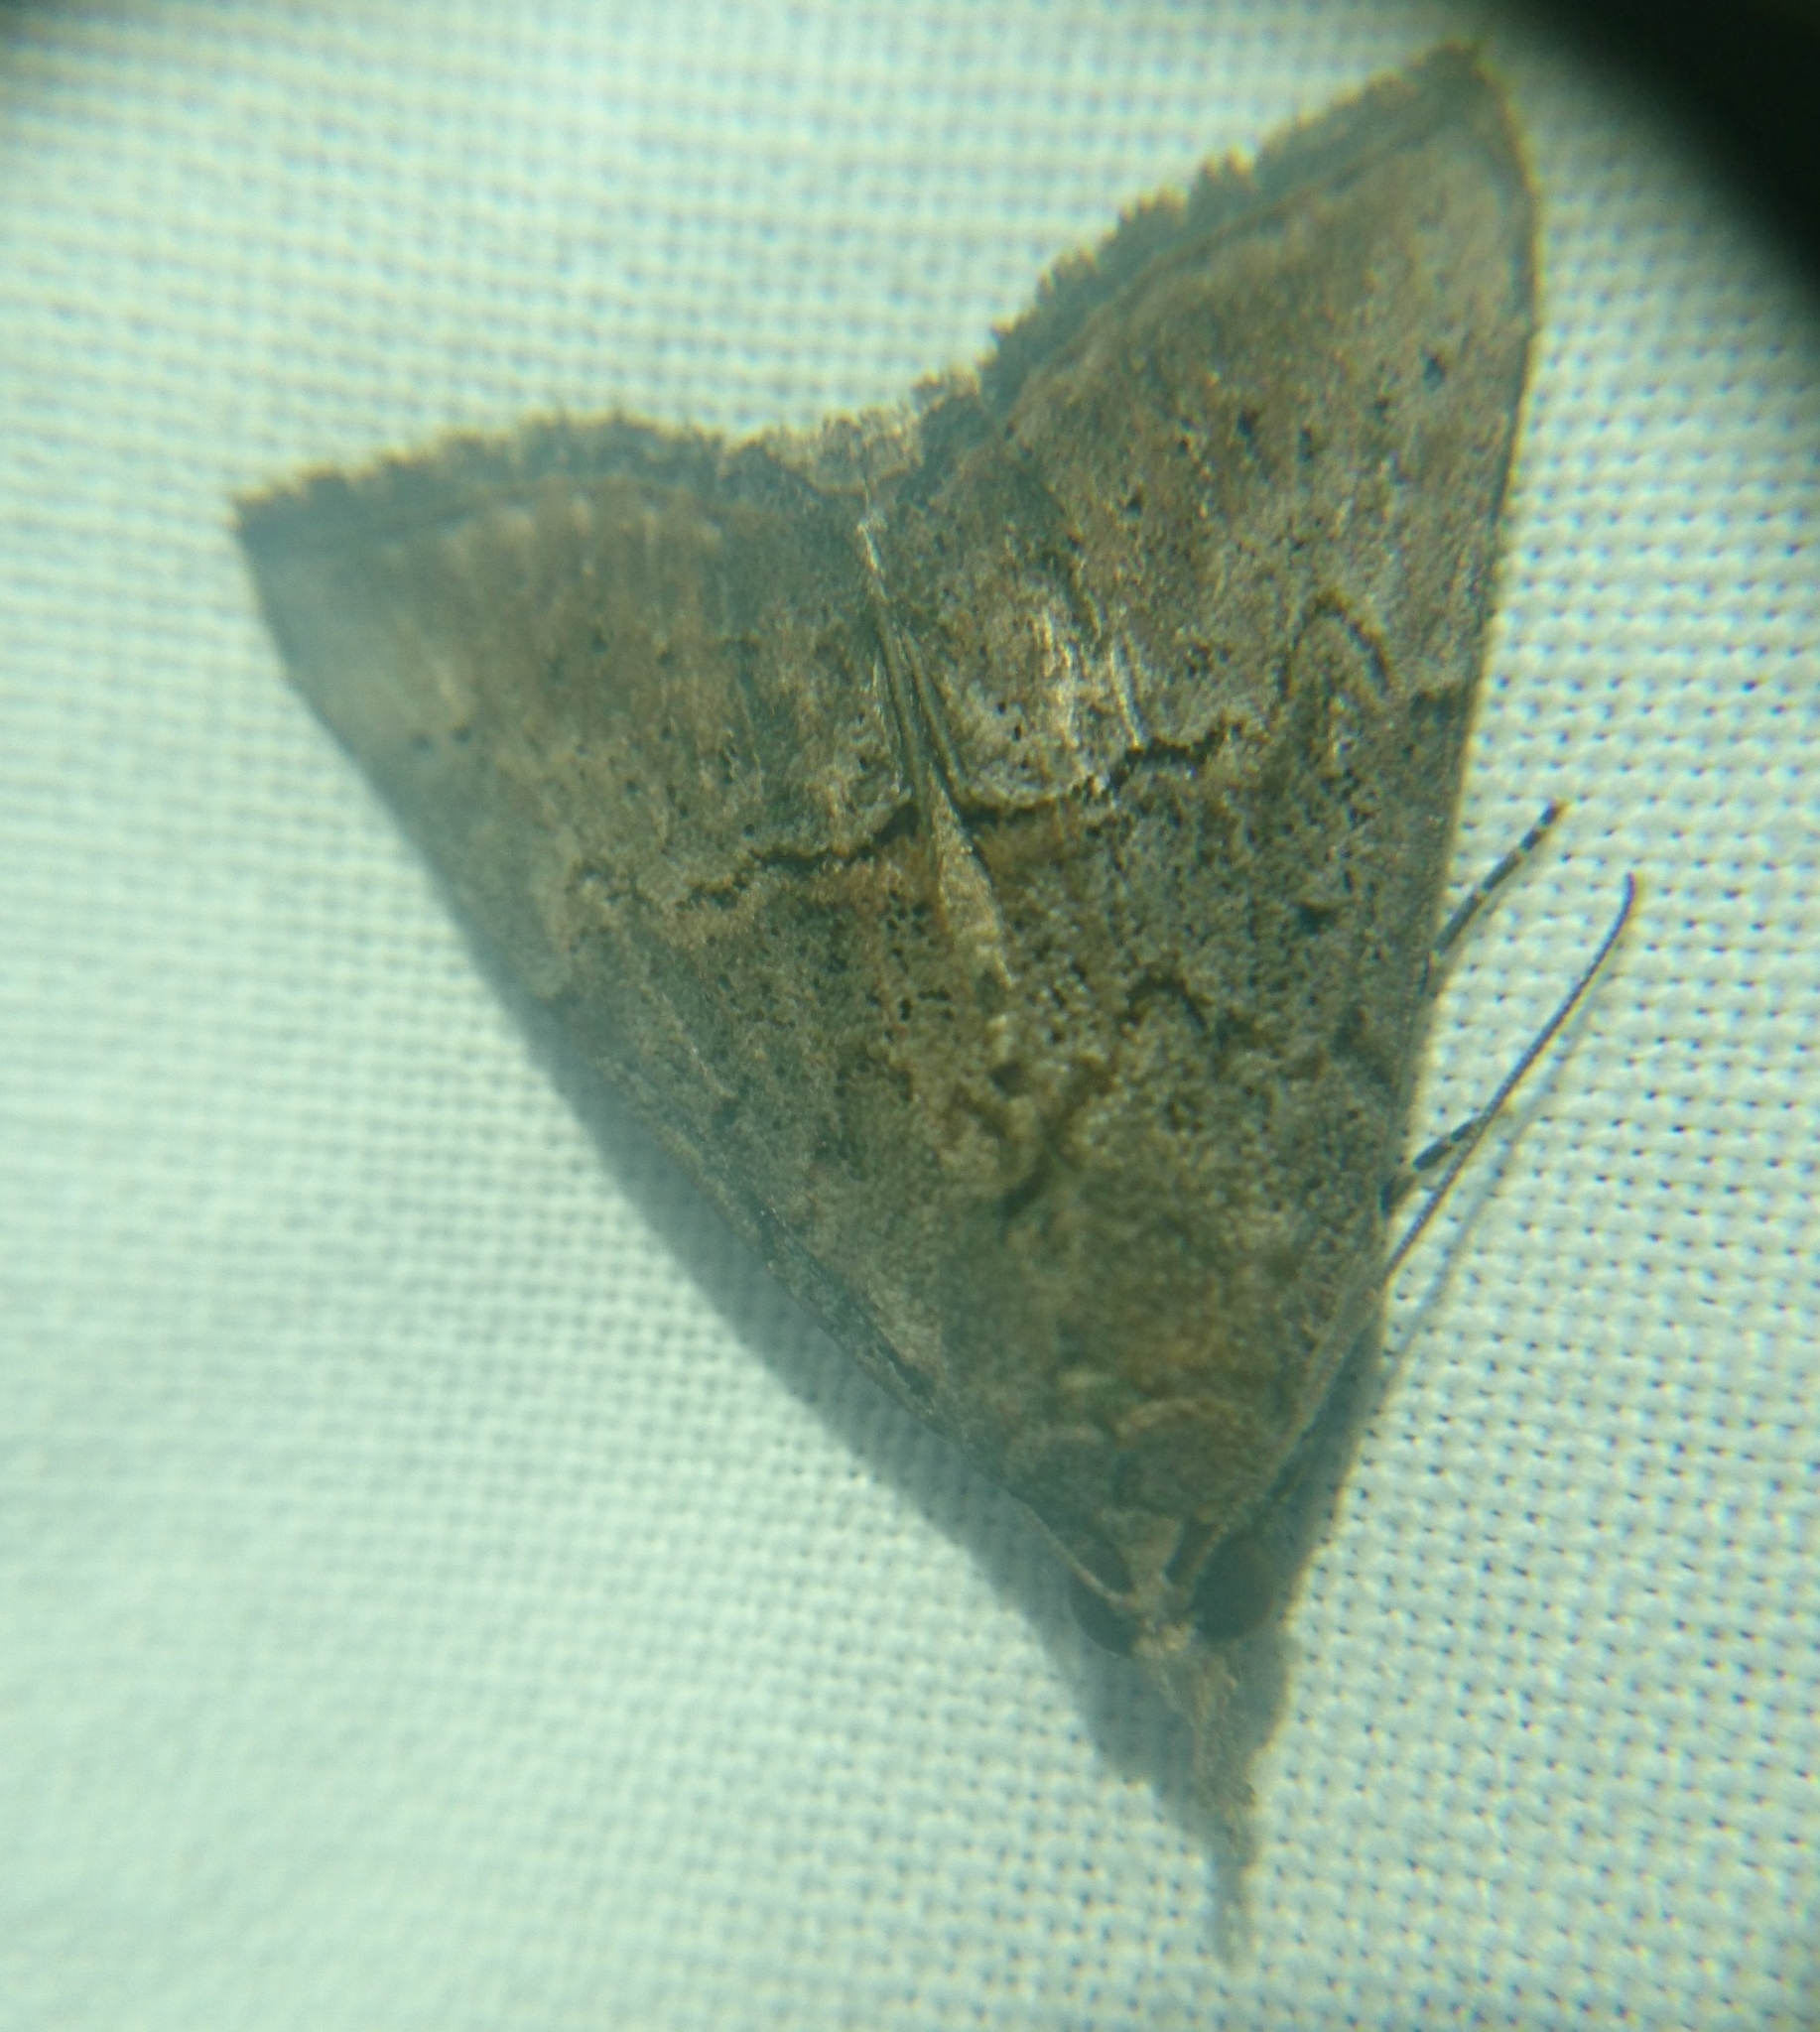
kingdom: Animalia
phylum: Arthropoda
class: Insecta
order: Lepidoptera
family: Erebidae
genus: Hypena
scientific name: Hypena scabra
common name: Green cloverworm
